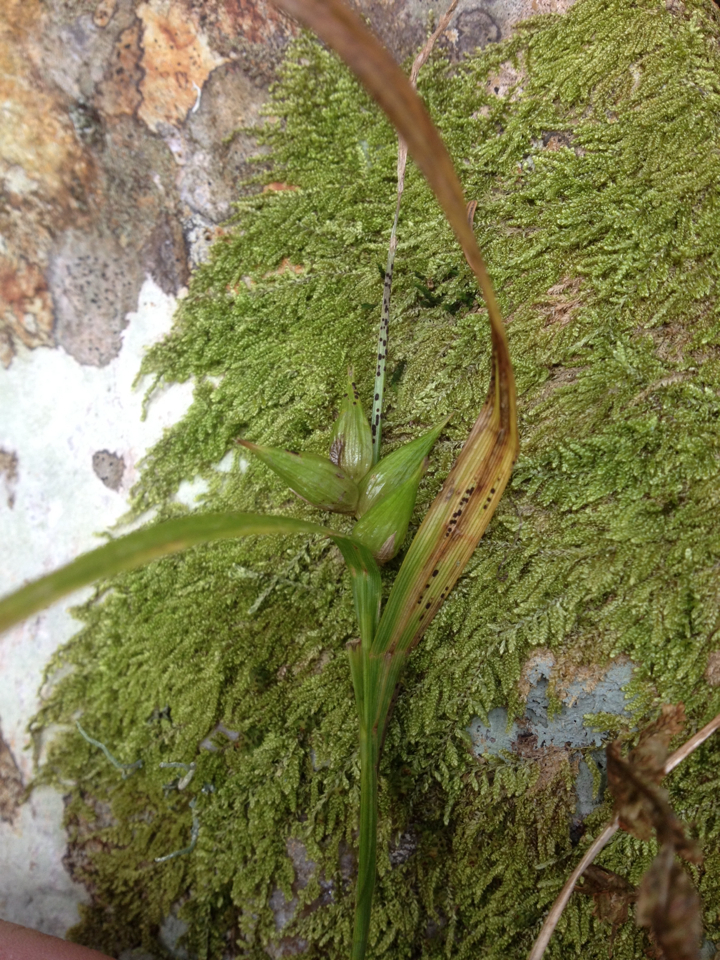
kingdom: Plantae
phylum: Tracheophyta
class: Liliopsida
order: Poales
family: Cyperaceae
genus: Carex
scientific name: Carex intumescens
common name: Greater bladder sedge
